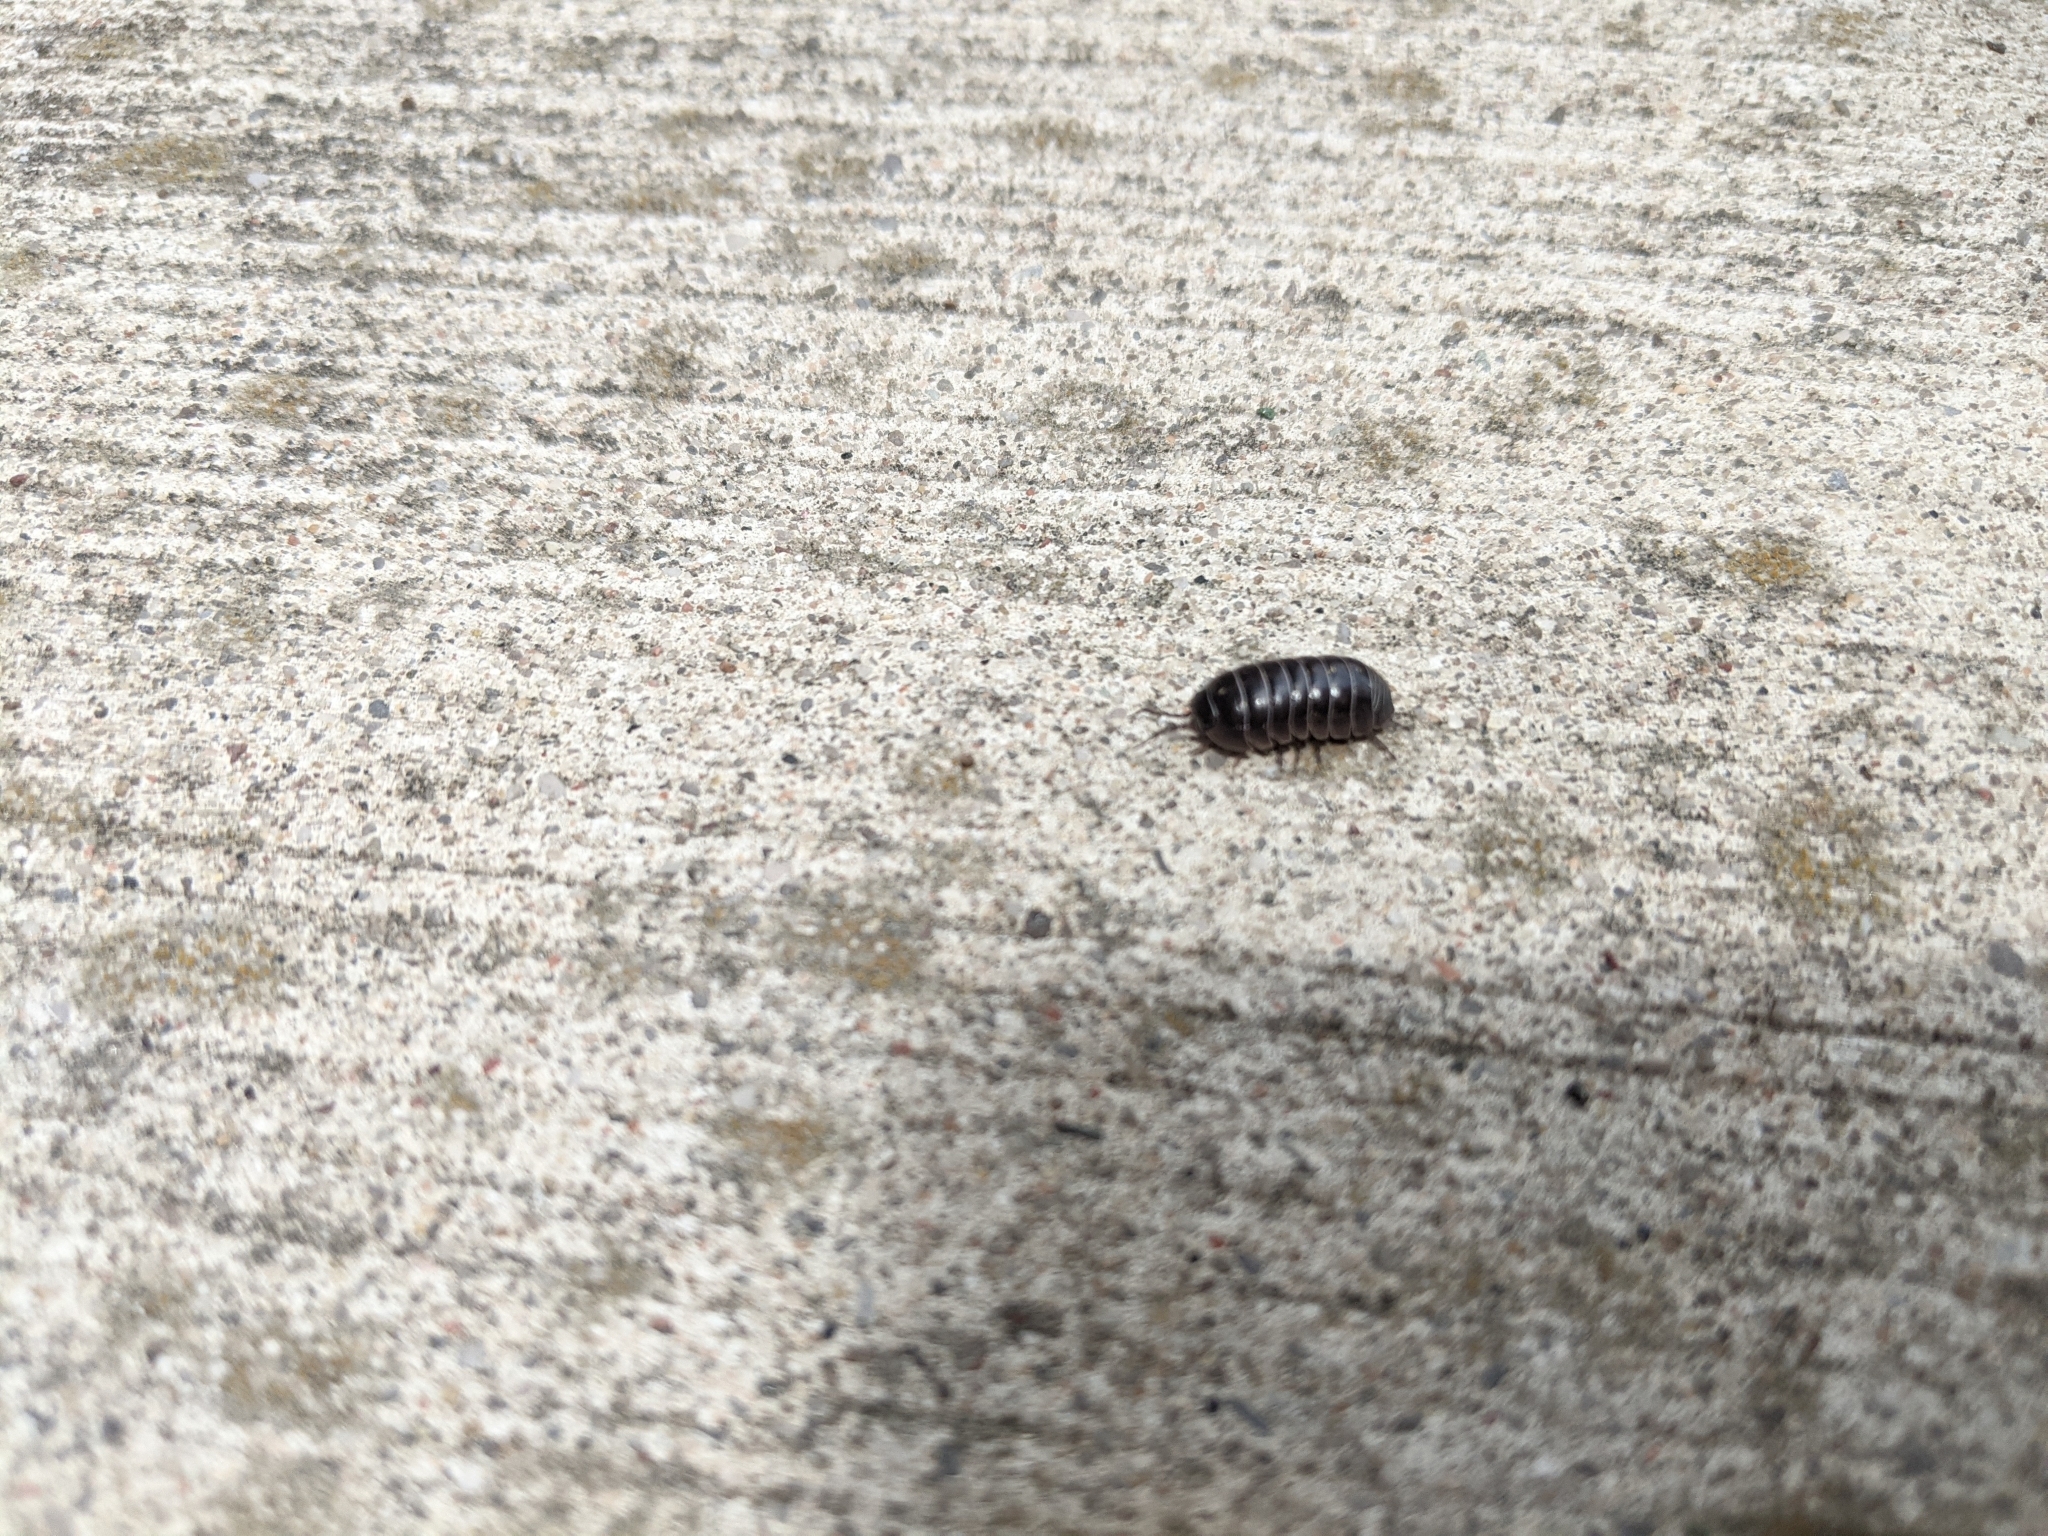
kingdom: Animalia
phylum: Arthropoda
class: Malacostraca
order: Isopoda
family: Armadillidiidae
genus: Armadillidium
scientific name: Armadillidium vulgare
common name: Common pill woodlouse
